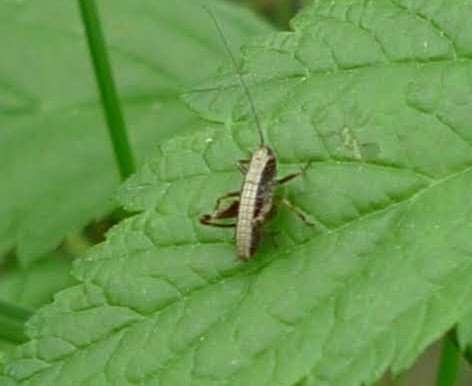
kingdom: Animalia
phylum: Arthropoda
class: Insecta
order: Orthoptera
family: Tettigoniidae
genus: Pholidoptera
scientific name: Pholidoptera griseoaptera
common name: Dark bush-cricket
